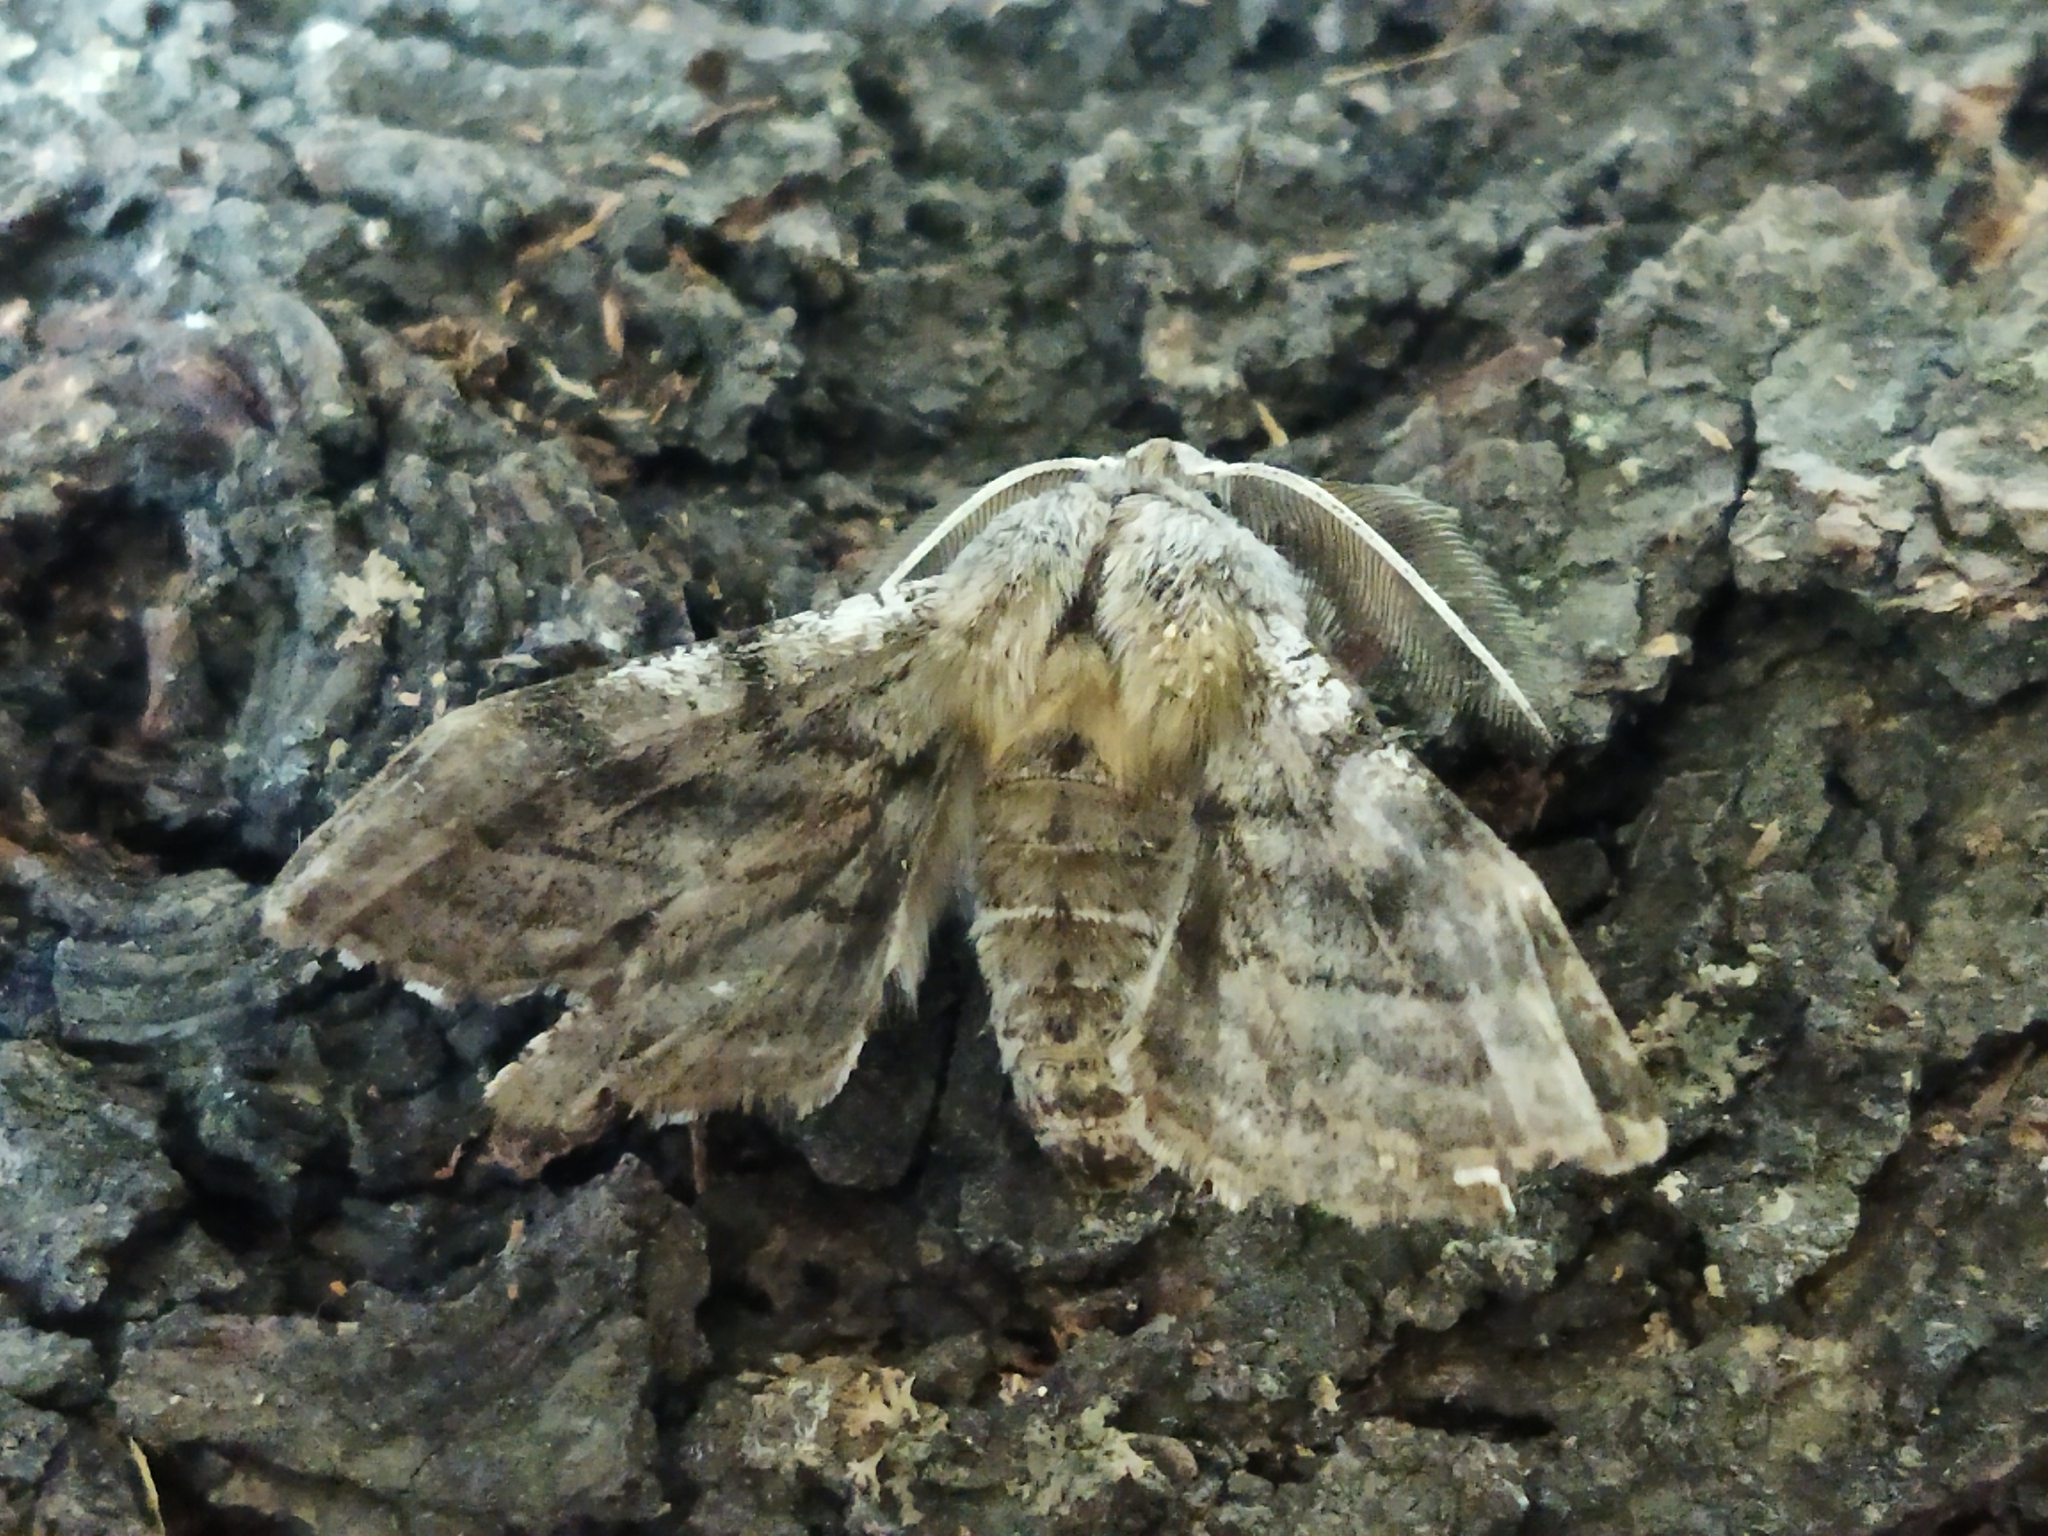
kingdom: Animalia
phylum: Arthropoda
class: Insecta
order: Lepidoptera
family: Geometridae
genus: Apochima
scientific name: Apochima flabellaria
